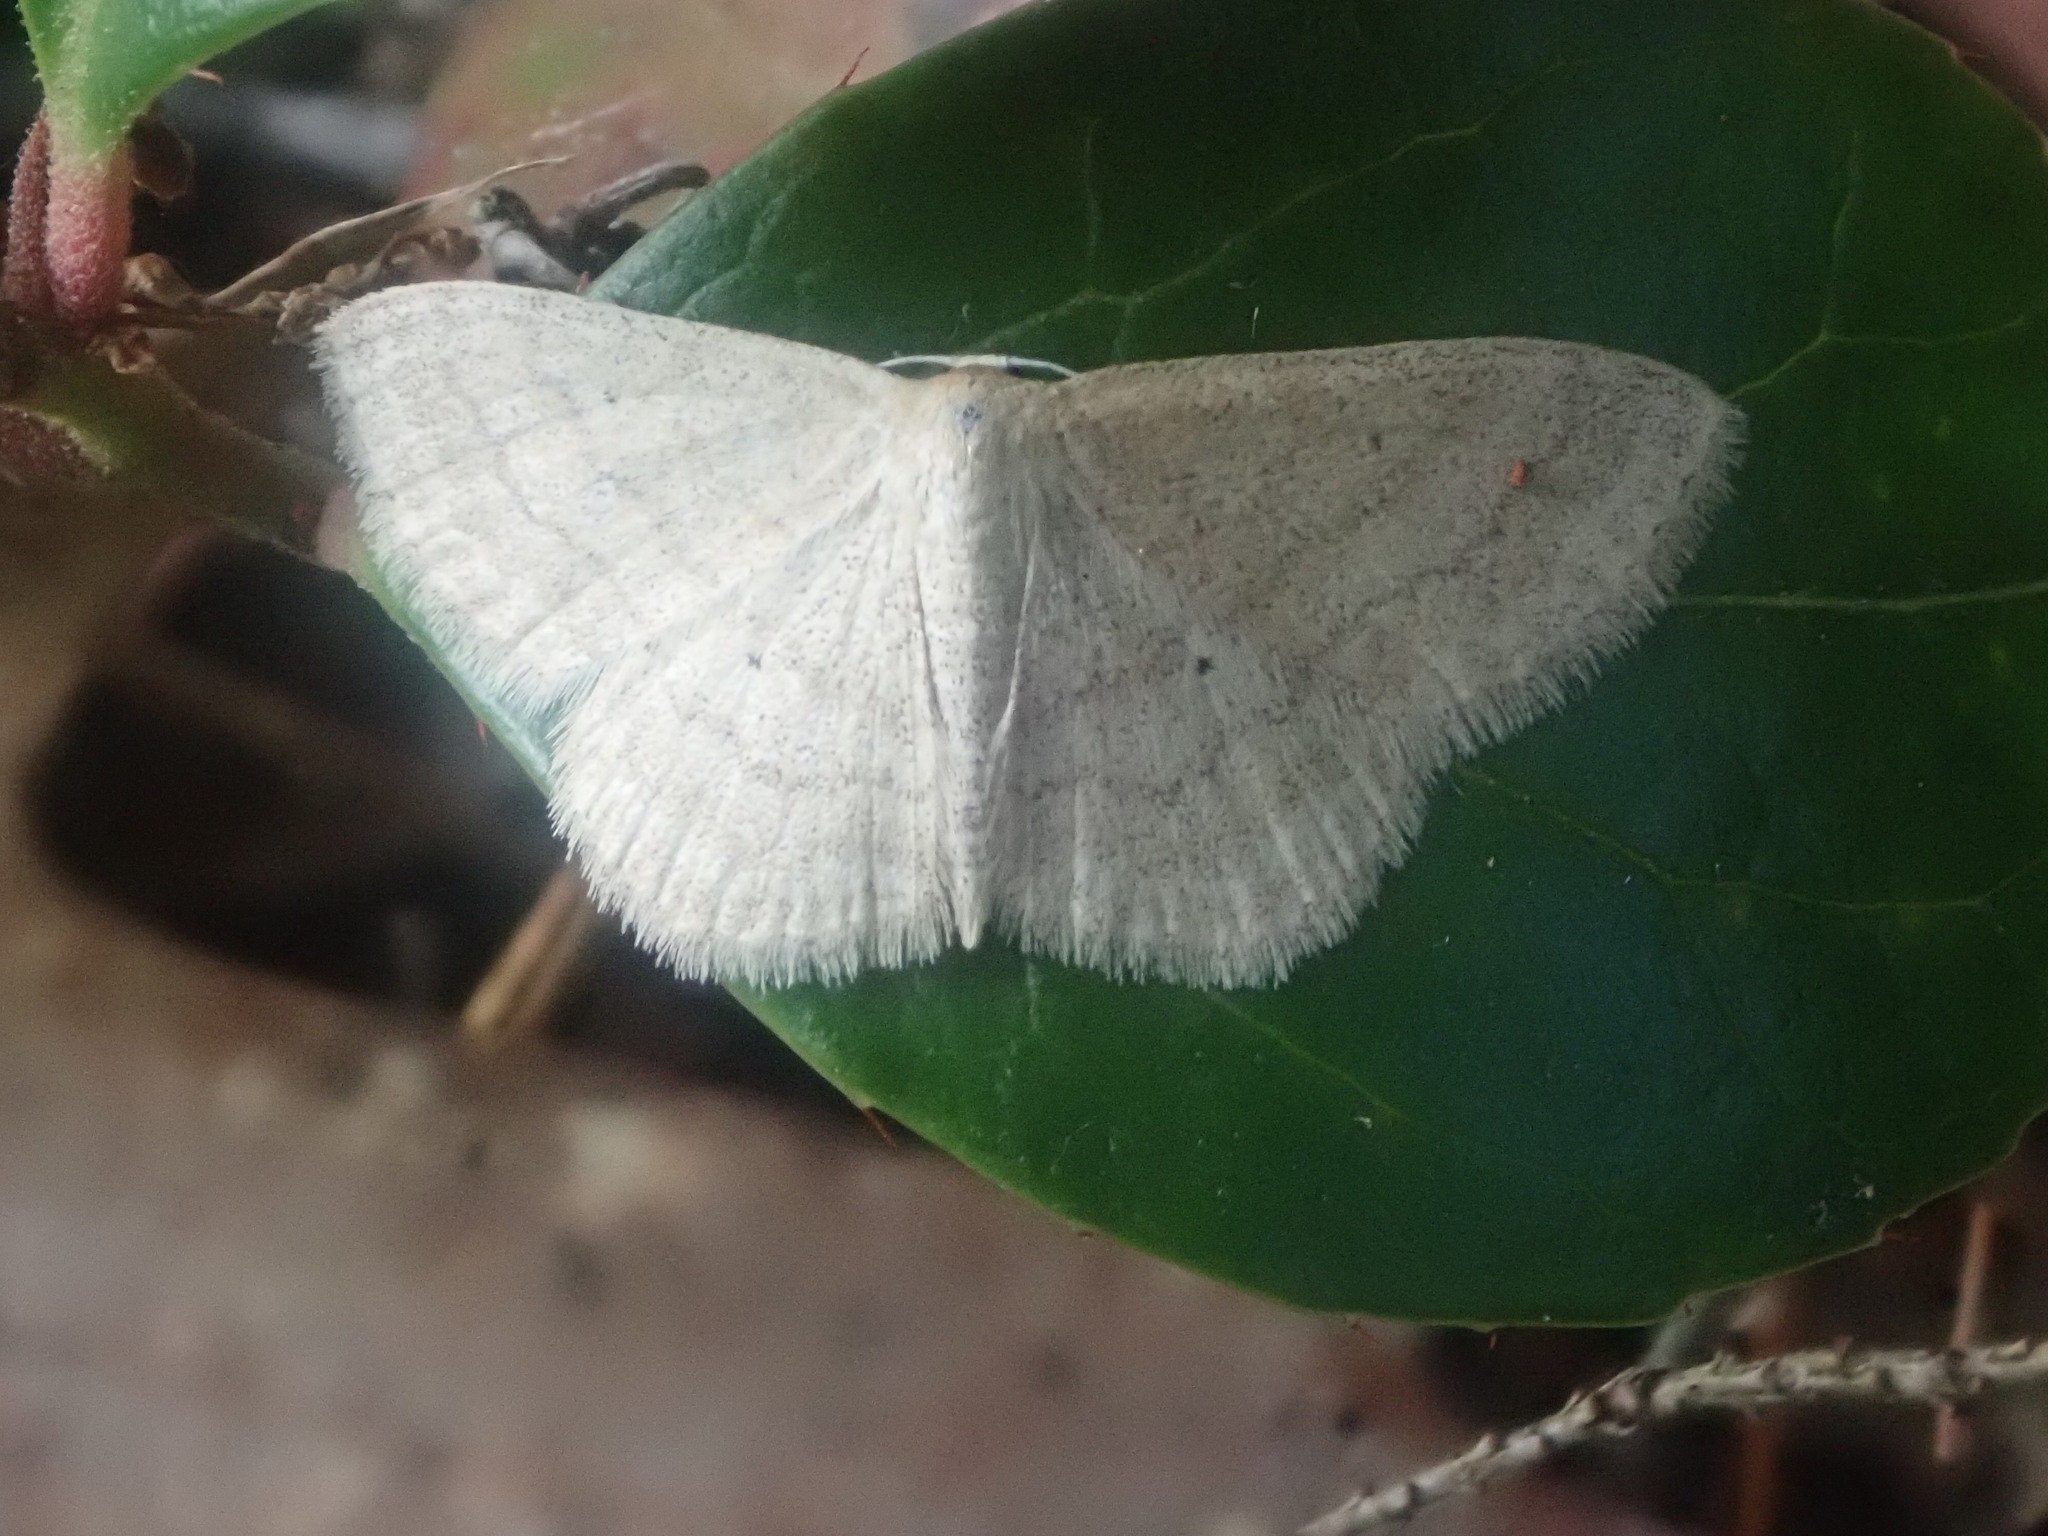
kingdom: Animalia
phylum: Arthropoda
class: Insecta
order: Lepidoptera
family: Geometridae
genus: Scopula
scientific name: Scopula inductata
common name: Soft-lined wave
